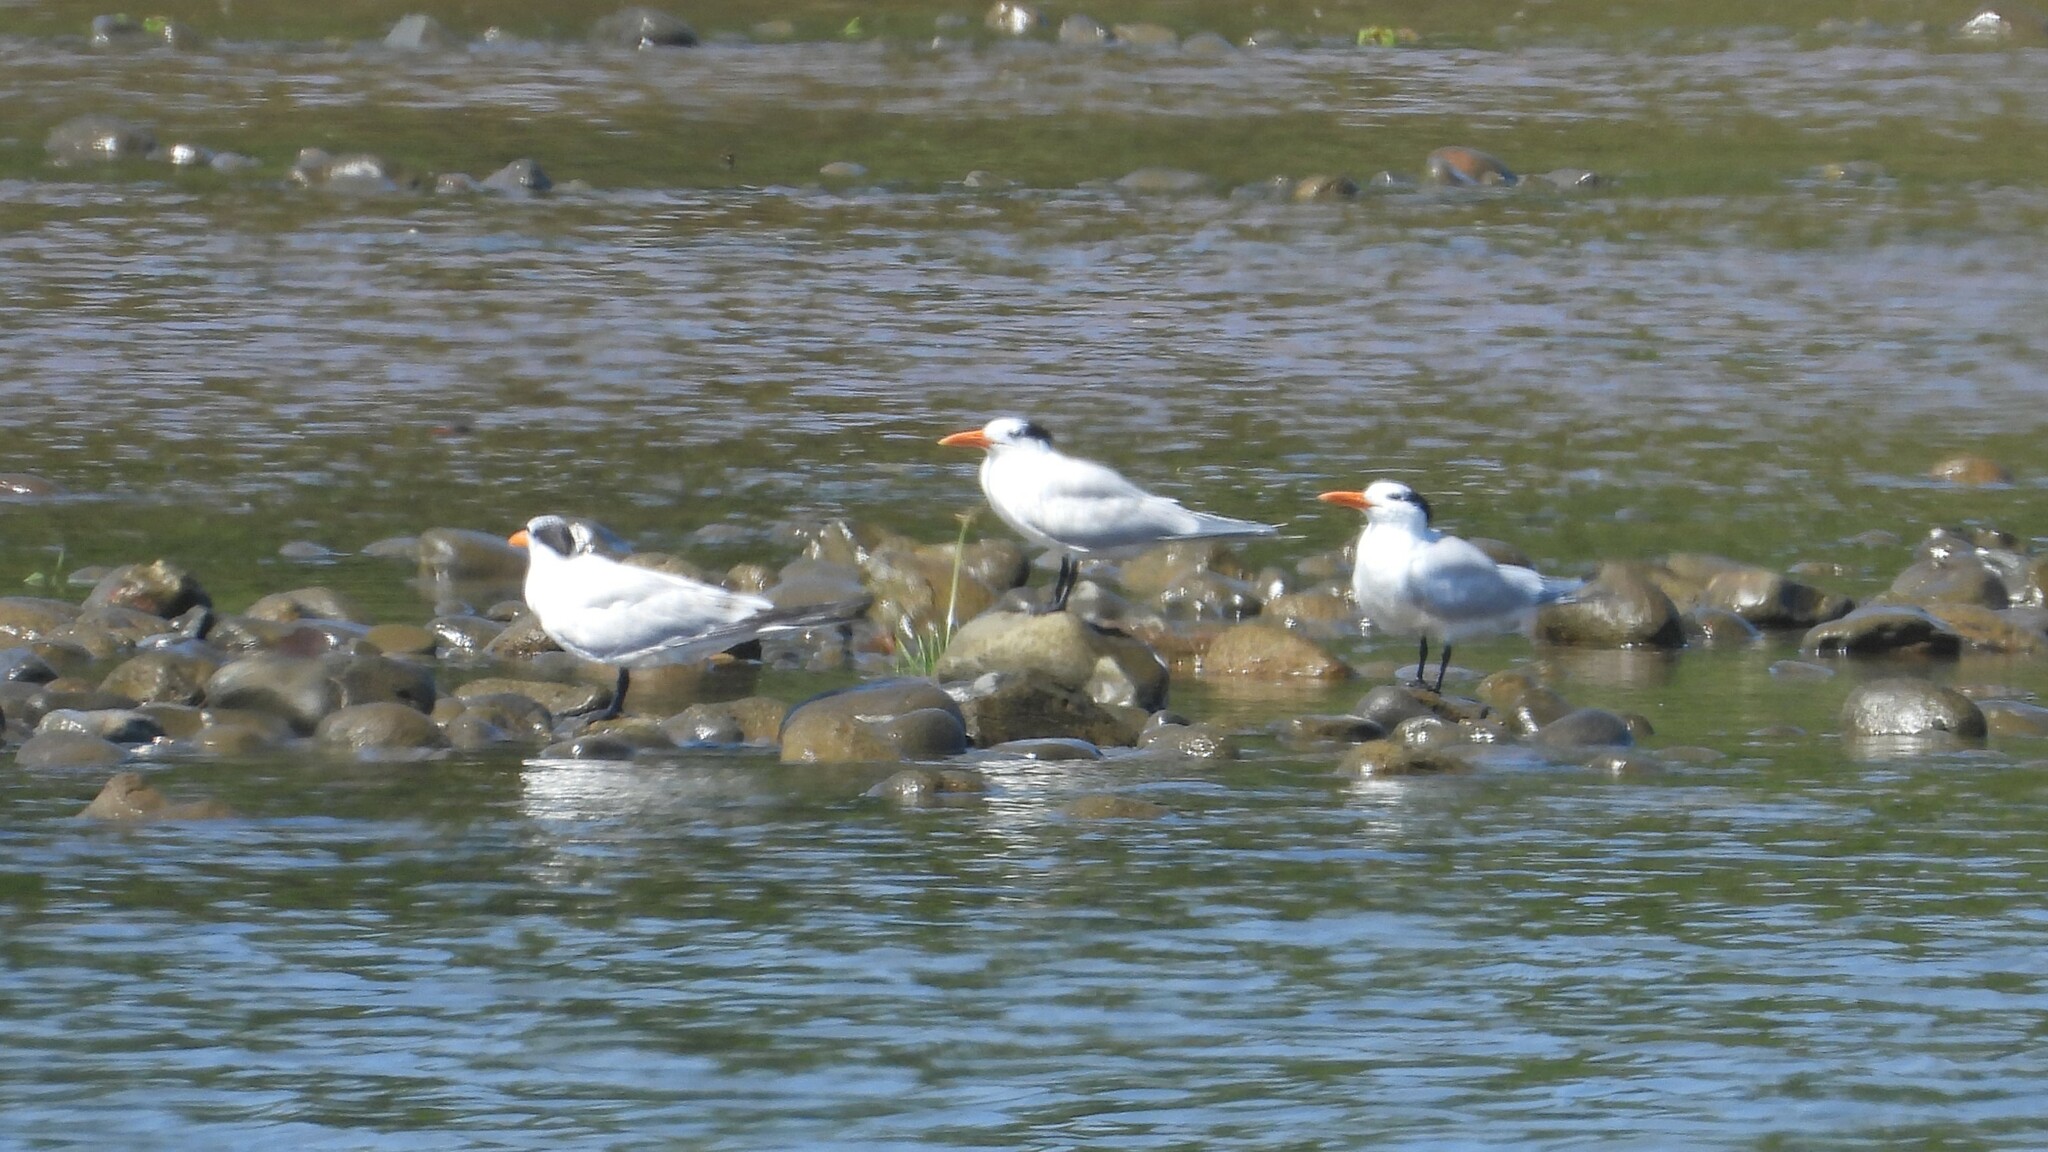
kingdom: Animalia
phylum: Chordata
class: Aves
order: Charadriiformes
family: Laridae
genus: Thalasseus
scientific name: Thalasseus maximus
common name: Royal tern
